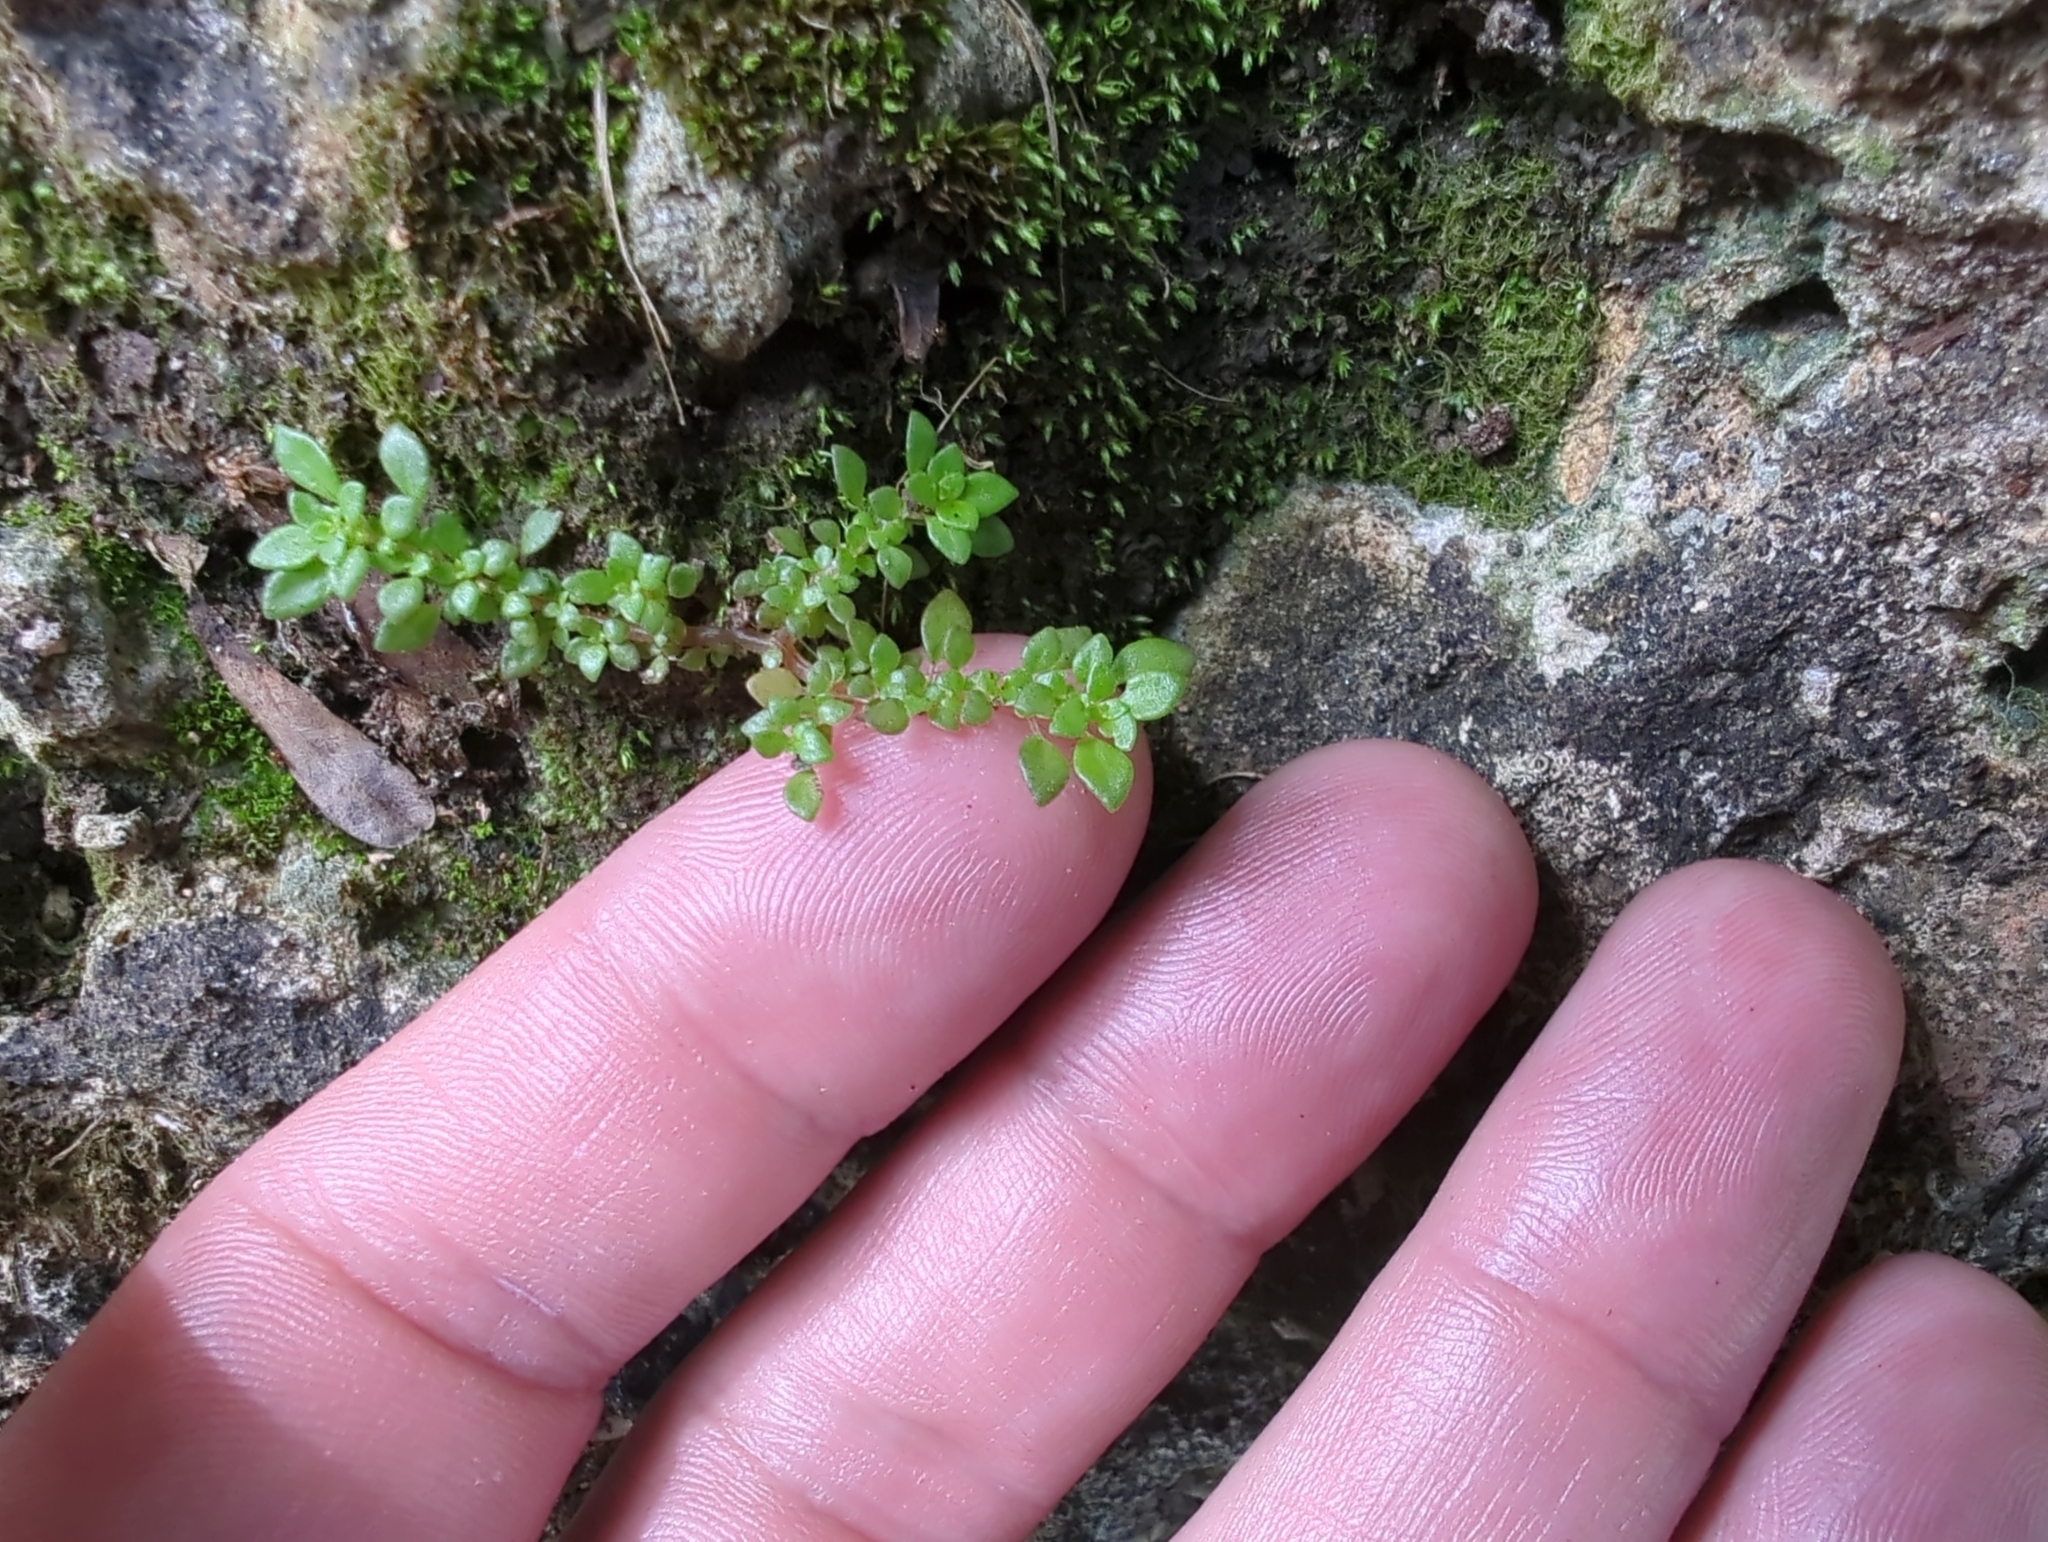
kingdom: Plantae
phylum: Tracheophyta
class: Magnoliopsida
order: Rosales
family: Urticaceae
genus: Pilea
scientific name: Pilea microphylla
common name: Artillery-plant
